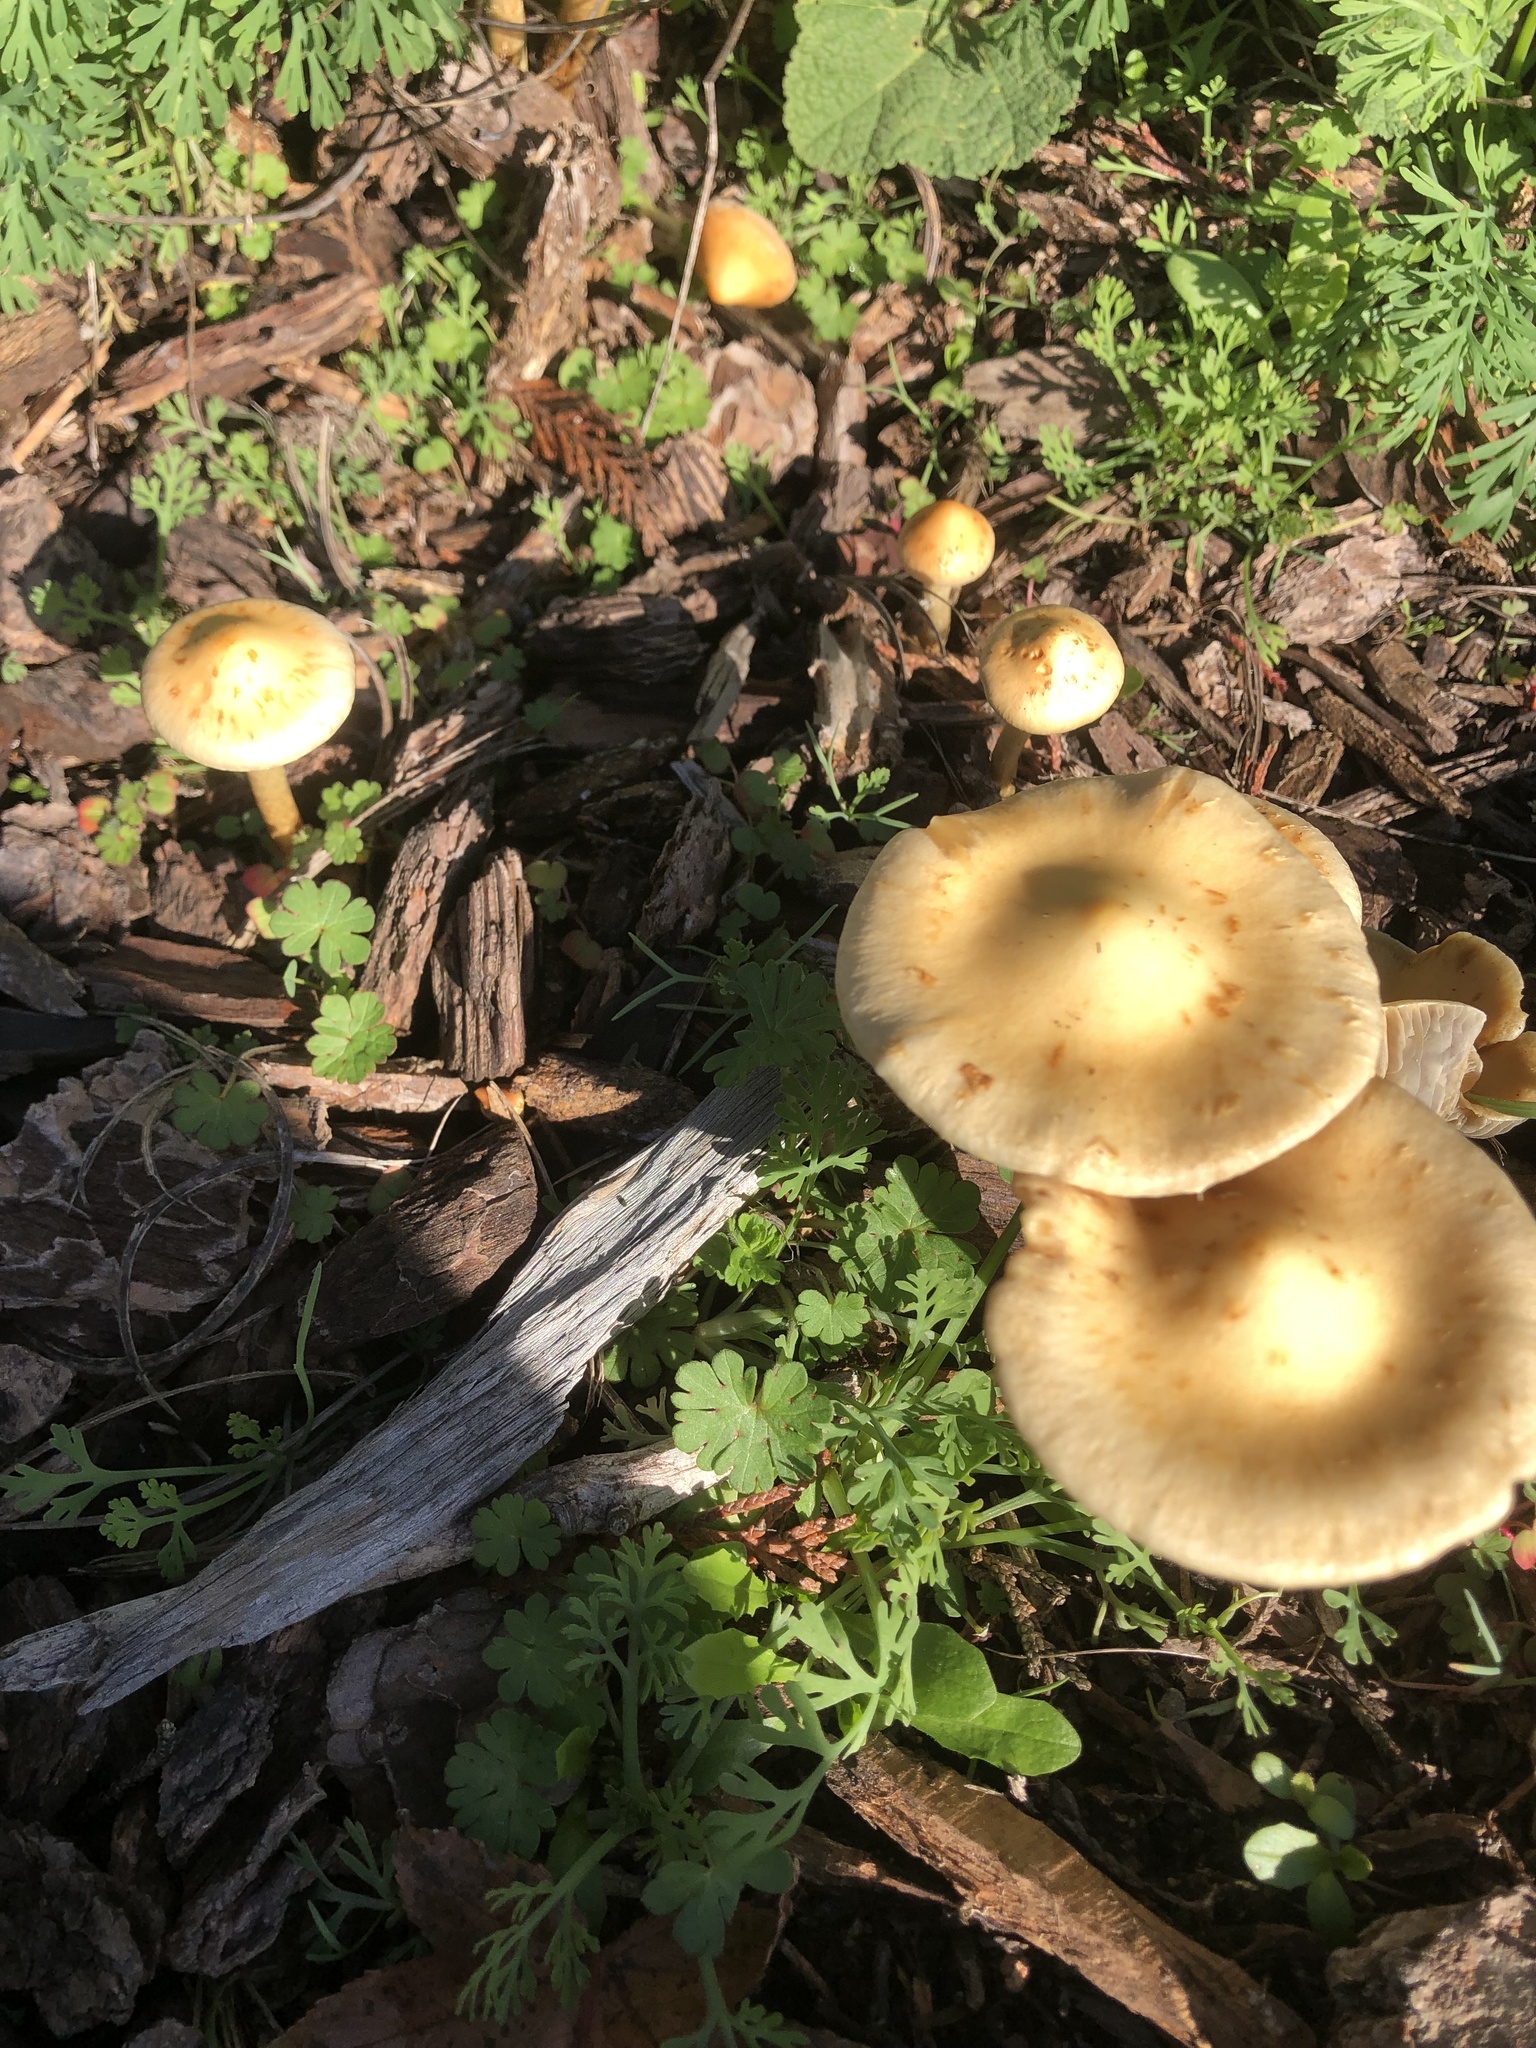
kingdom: Fungi
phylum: Basidiomycota
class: Agaricomycetes
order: Agaricales
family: Strophariaceae
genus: Leratiomyces
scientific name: Leratiomyces percevalii
